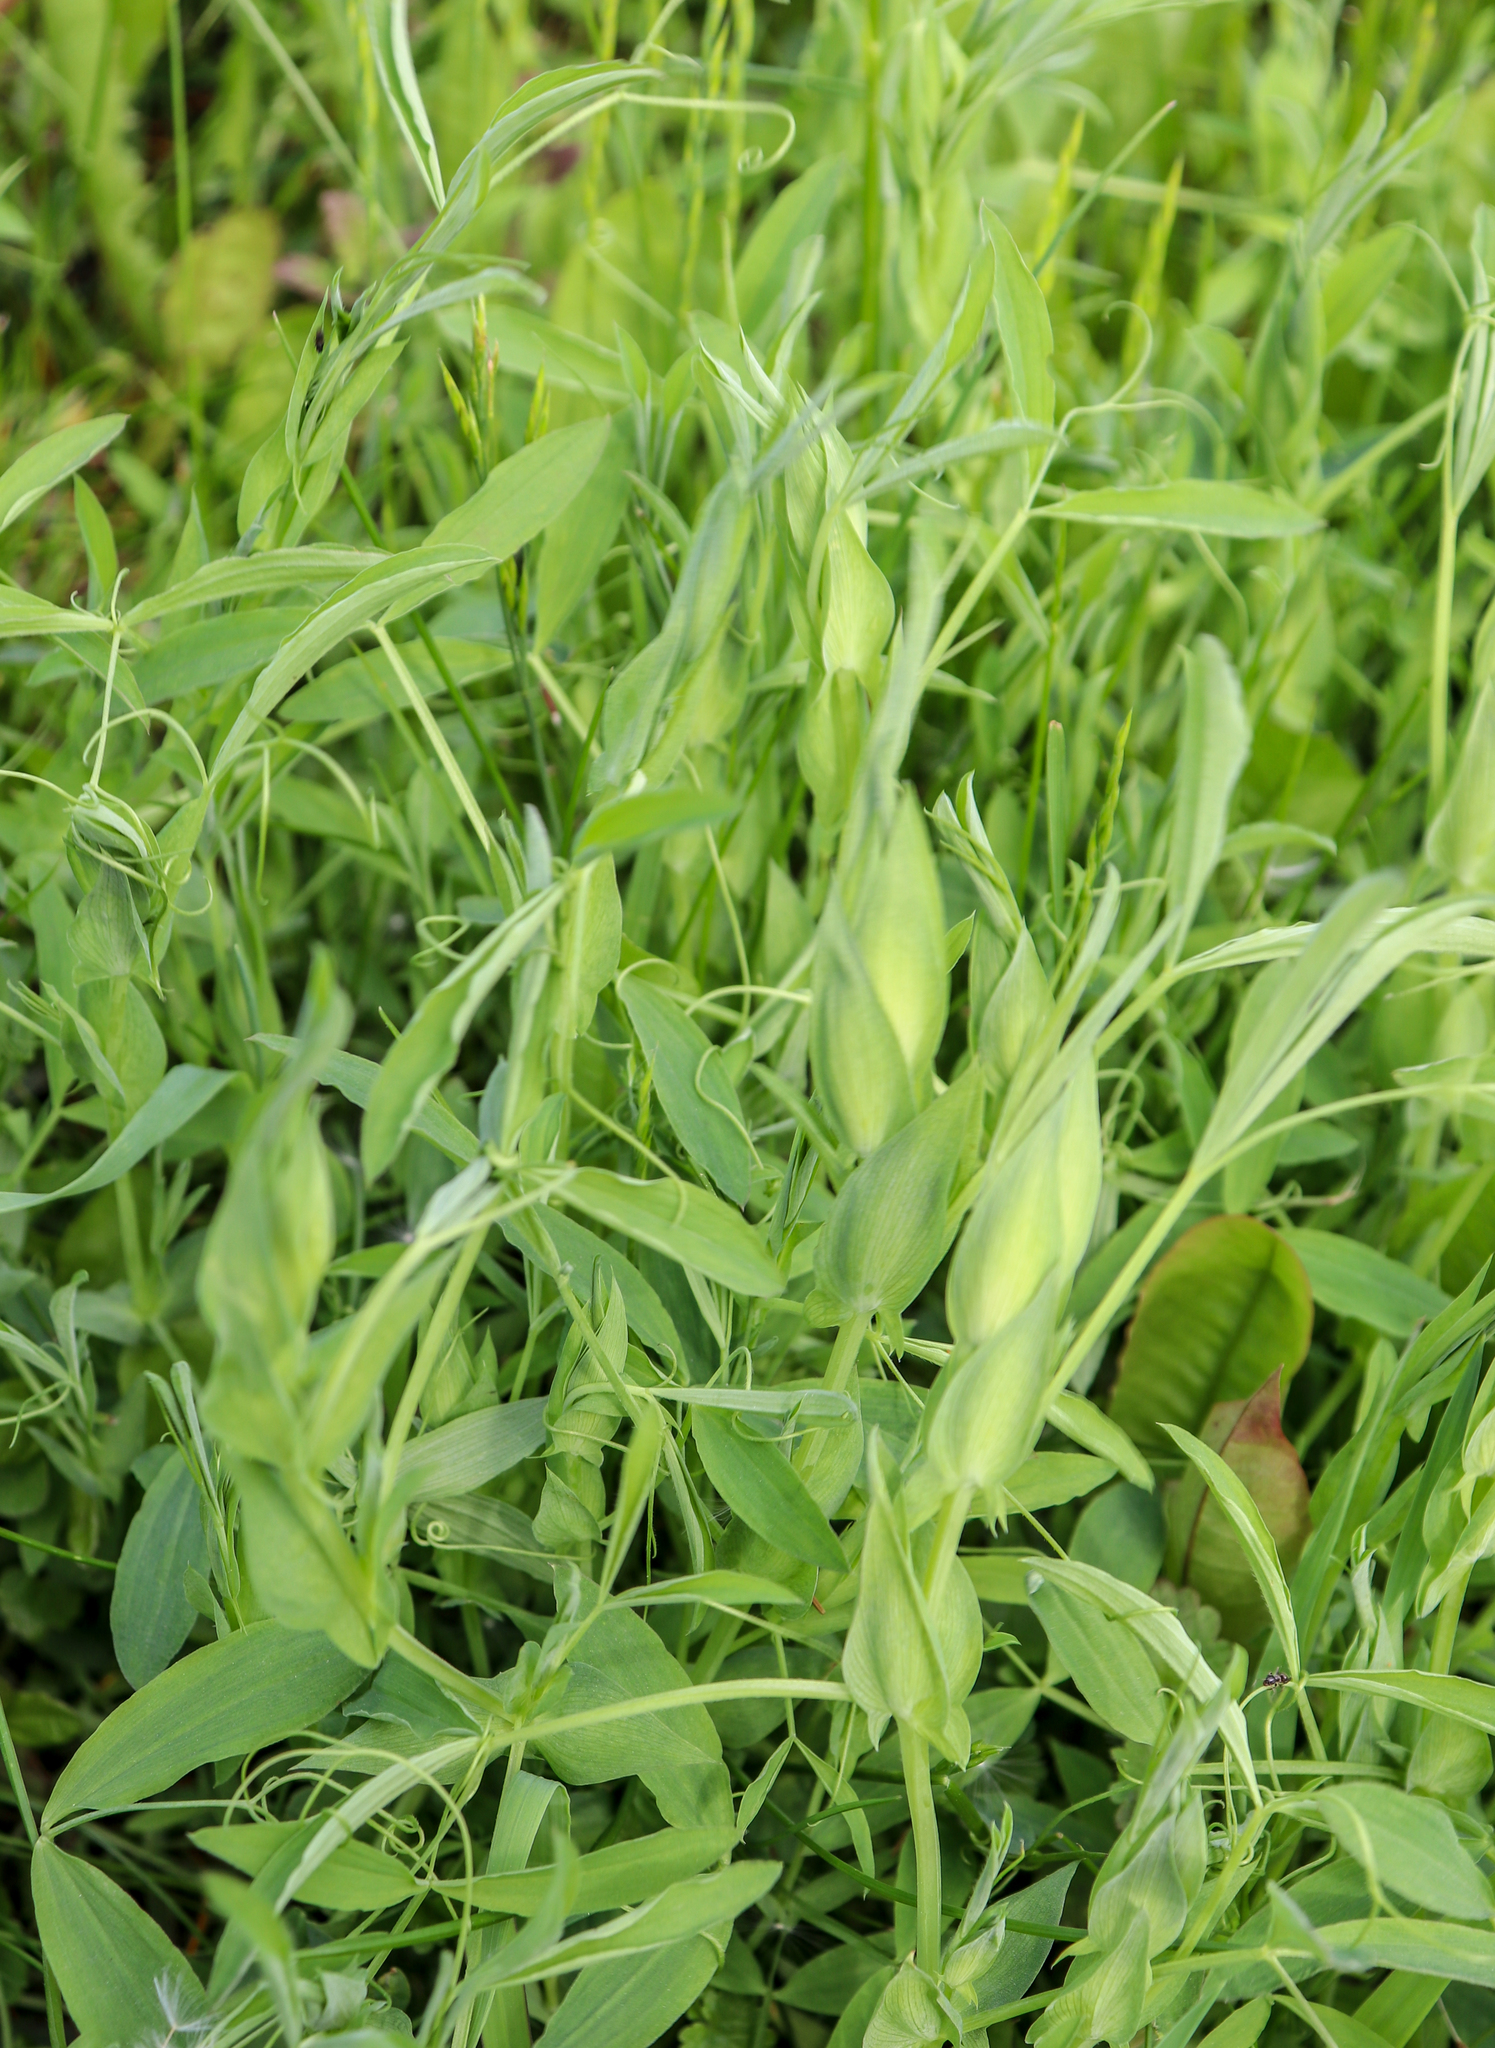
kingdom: Plantae
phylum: Tracheophyta
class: Magnoliopsida
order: Fabales
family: Fabaceae
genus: Lathyrus
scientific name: Lathyrus pratensis
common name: Meadow vetchling
